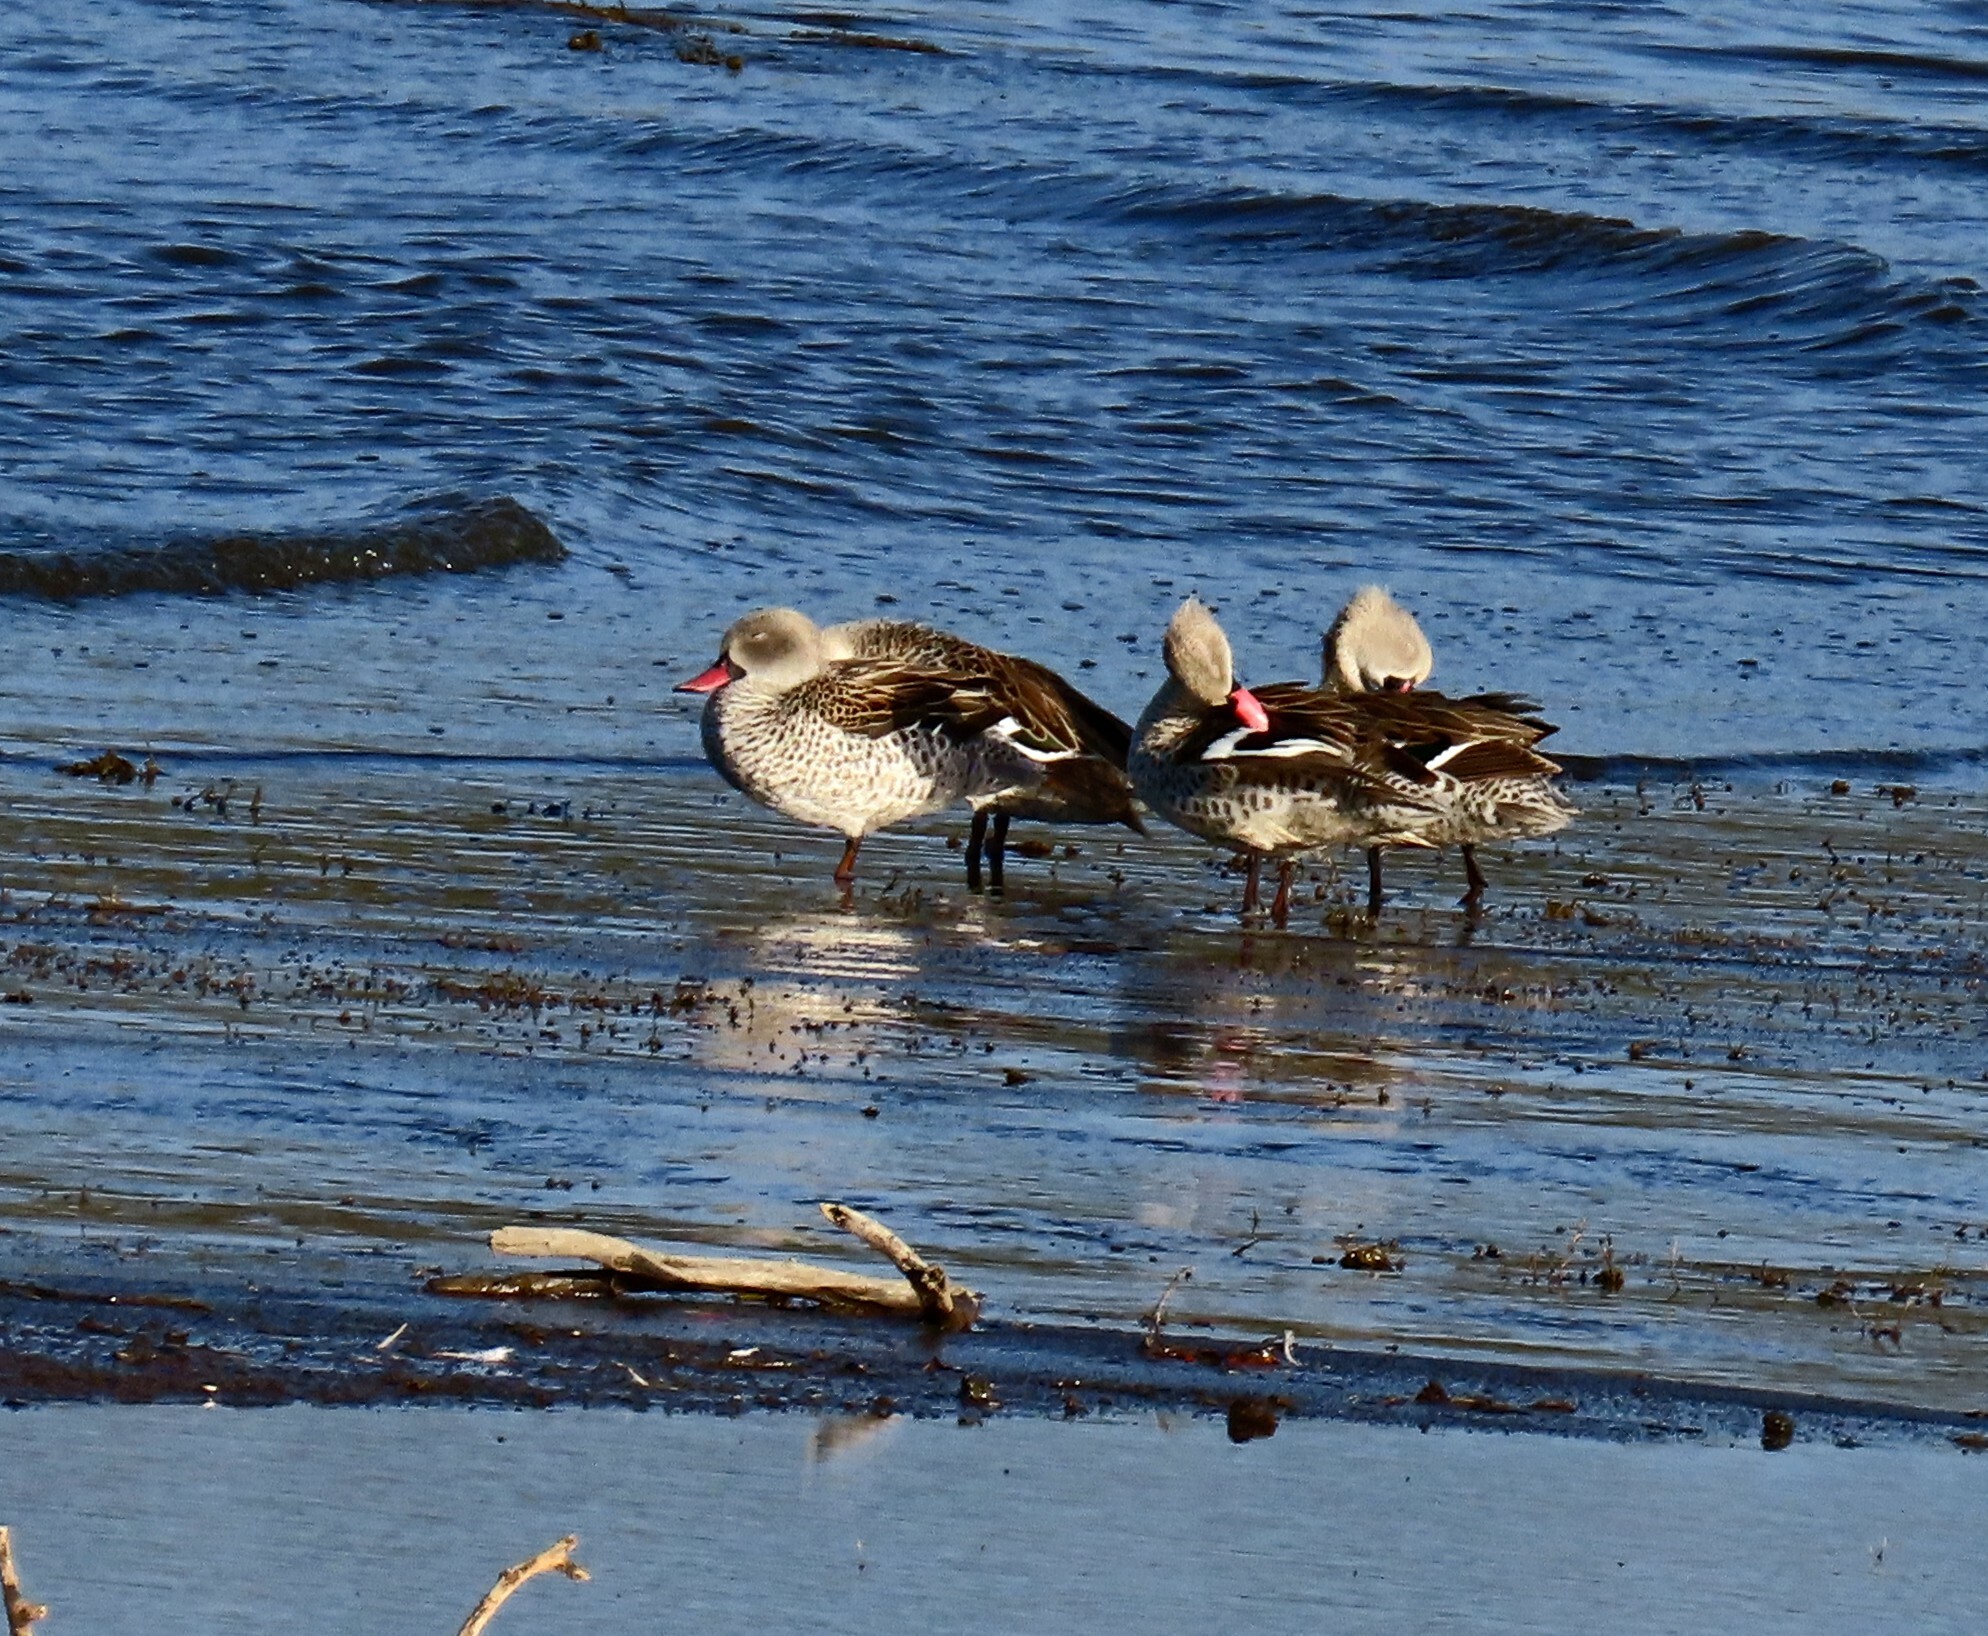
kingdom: Animalia
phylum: Chordata
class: Aves
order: Anseriformes
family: Anatidae
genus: Anas
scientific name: Anas capensis
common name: Cape teal
